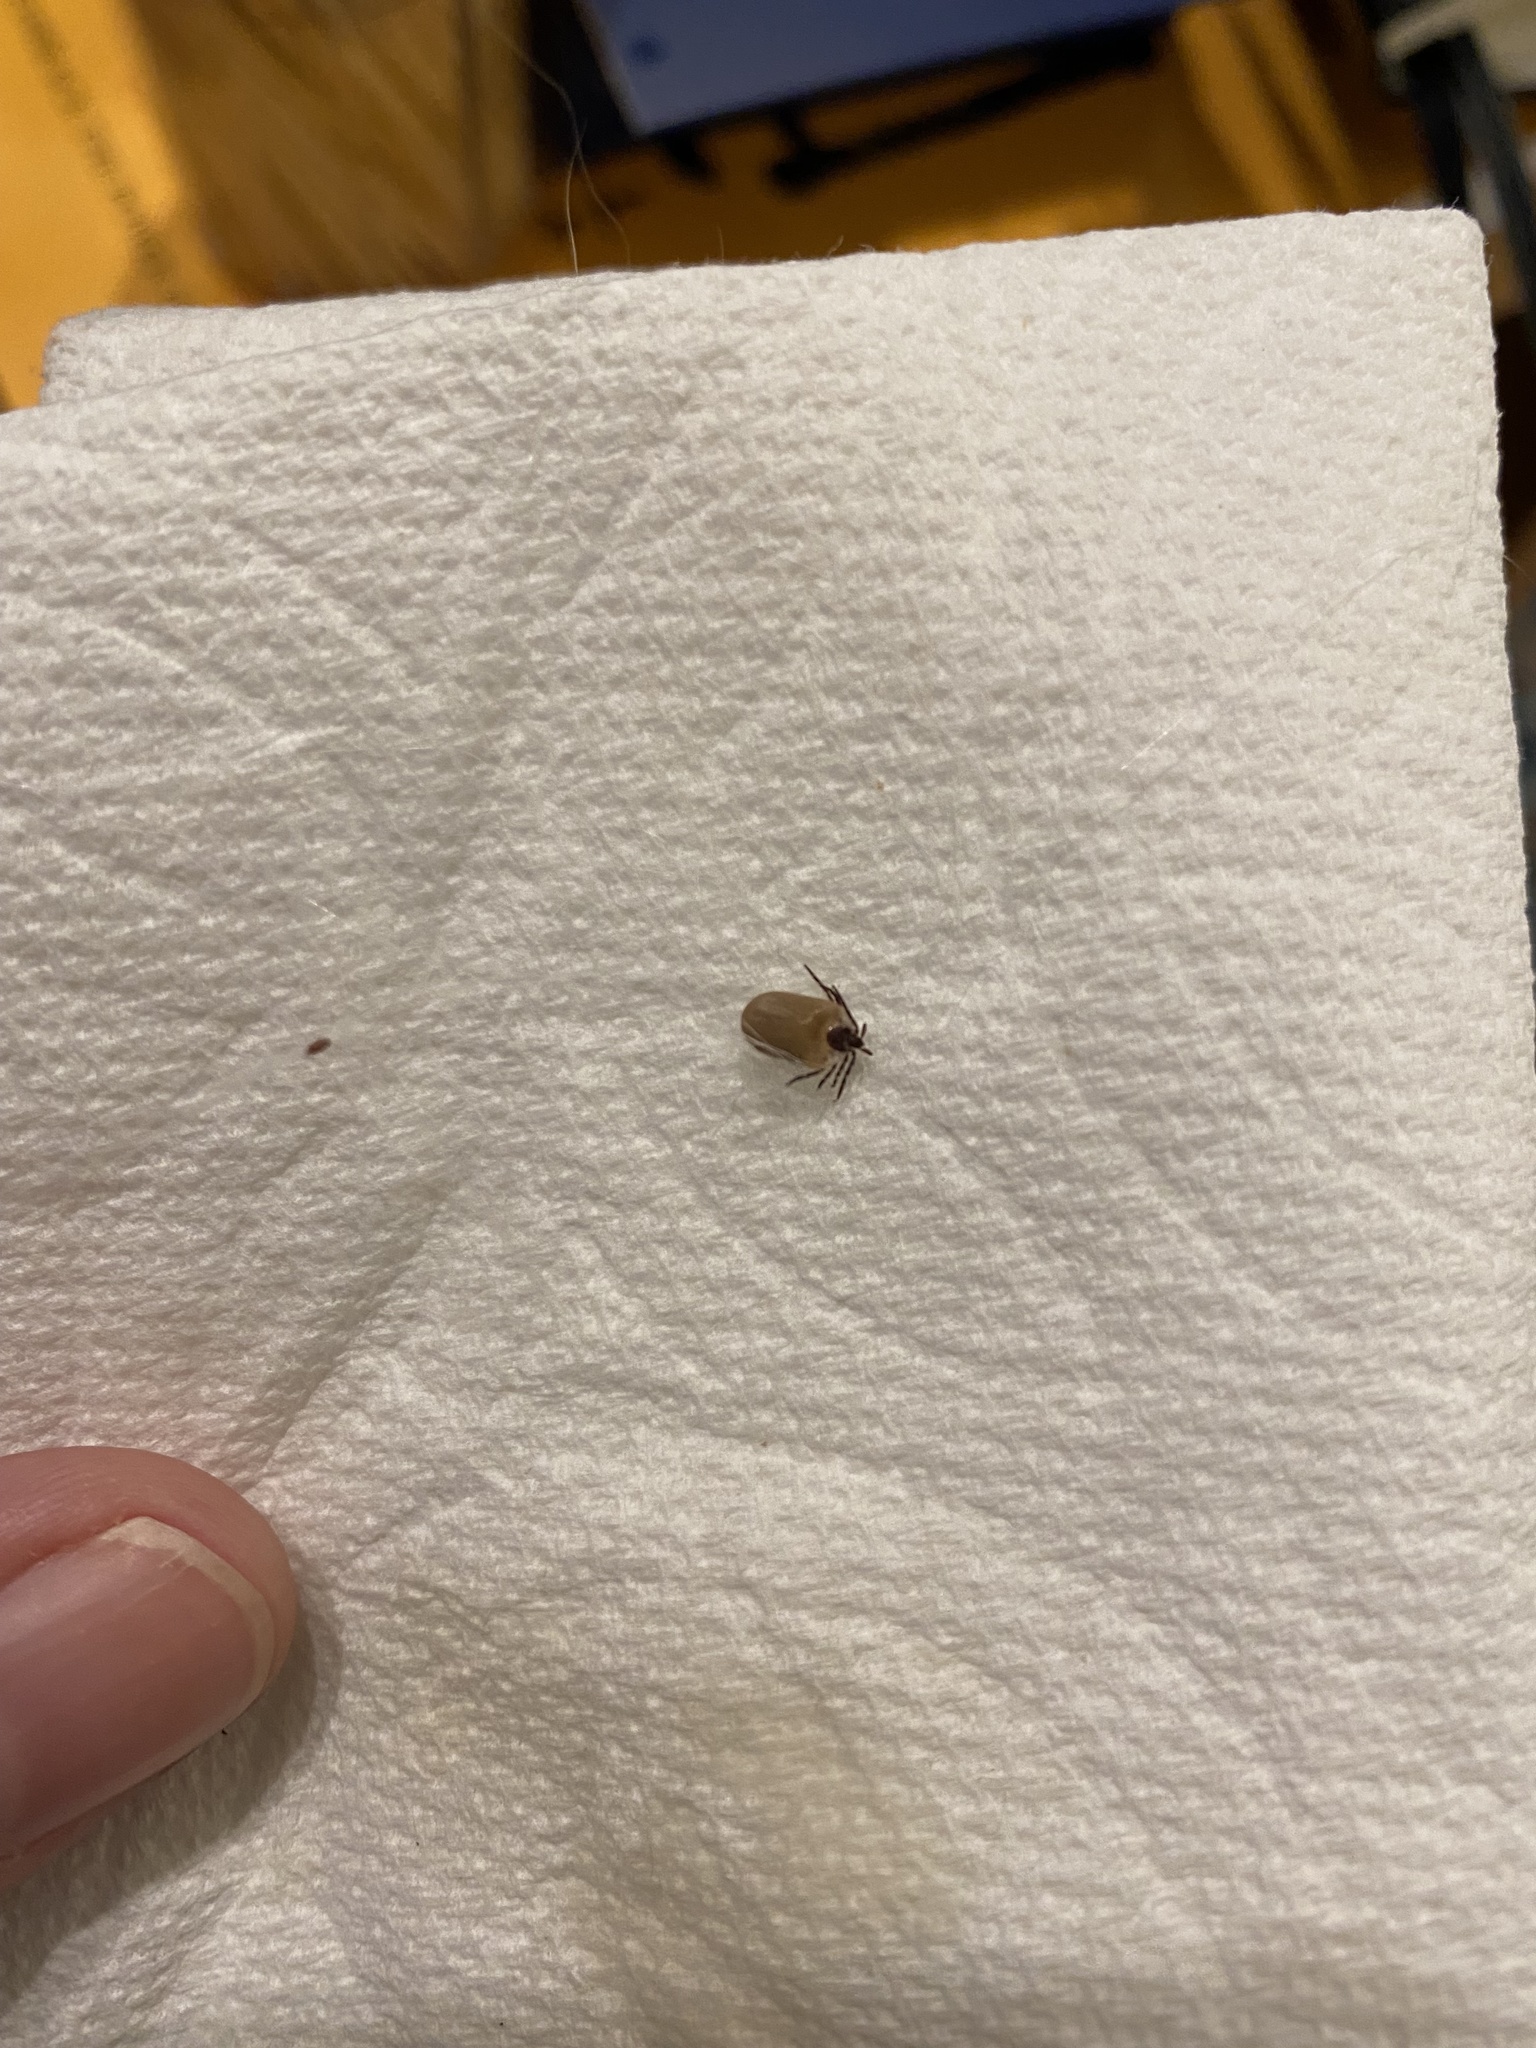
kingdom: Animalia
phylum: Arthropoda
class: Arachnida
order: Ixodida
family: Ixodidae
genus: Ixodes
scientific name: Ixodes scapularis
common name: Black legged tick
